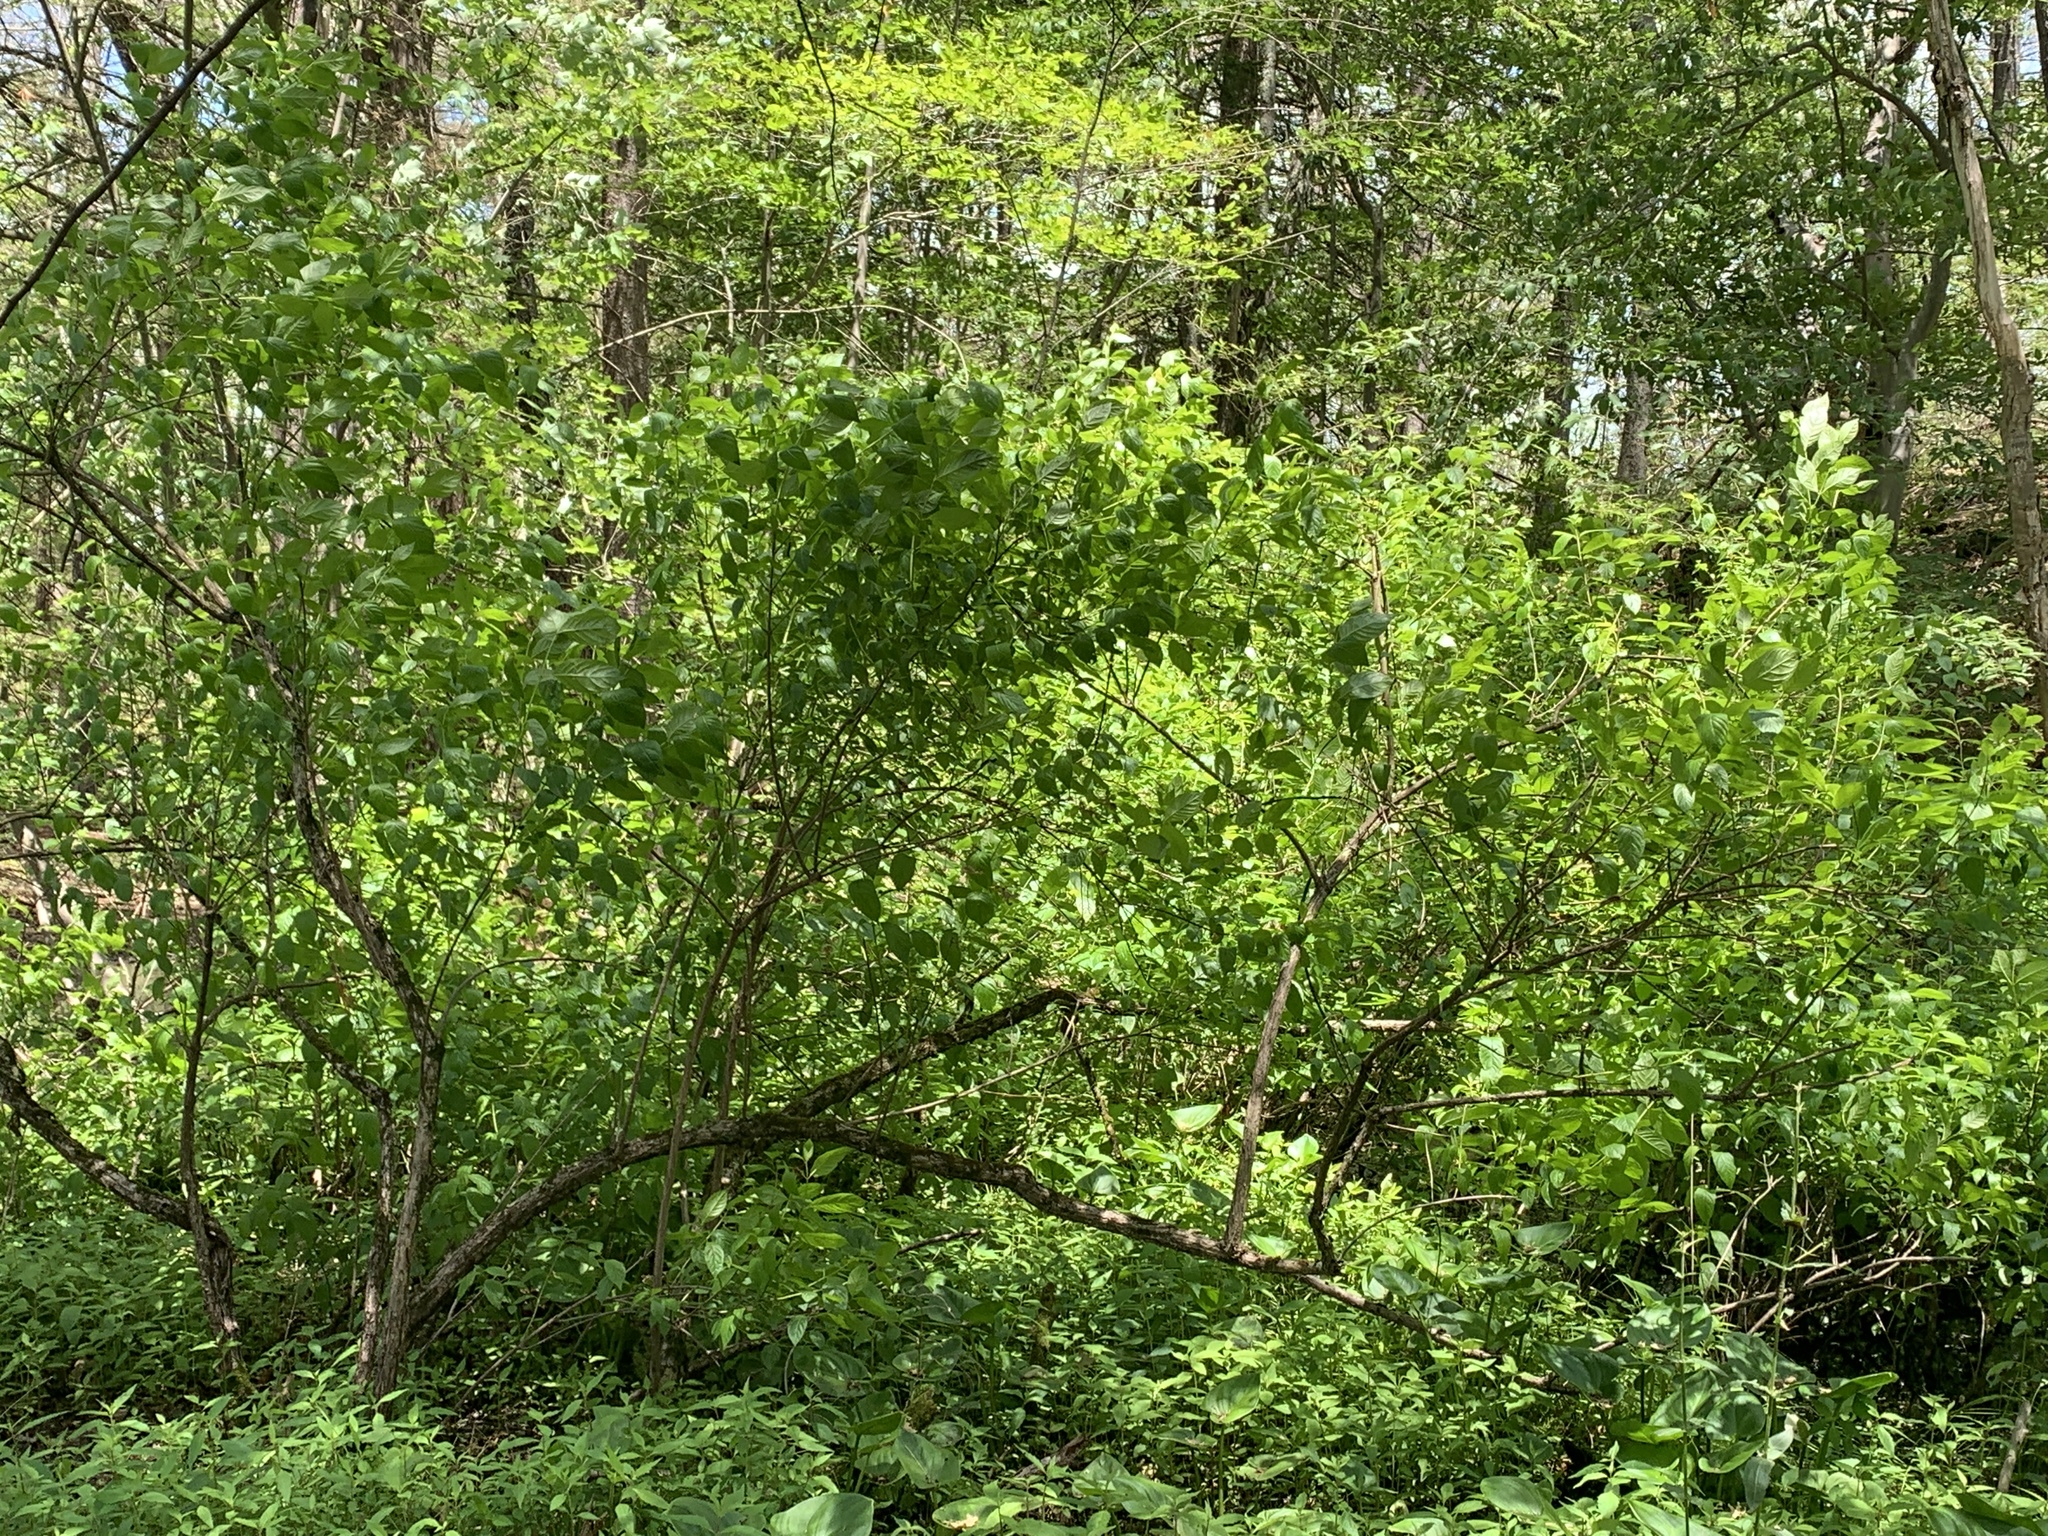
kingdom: Plantae
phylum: Tracheophyta
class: Magnoliopsida
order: Gentianales
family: Rubiaceae
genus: Cephalanthus
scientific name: Cephalanthus occidentalis
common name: Button-willow
